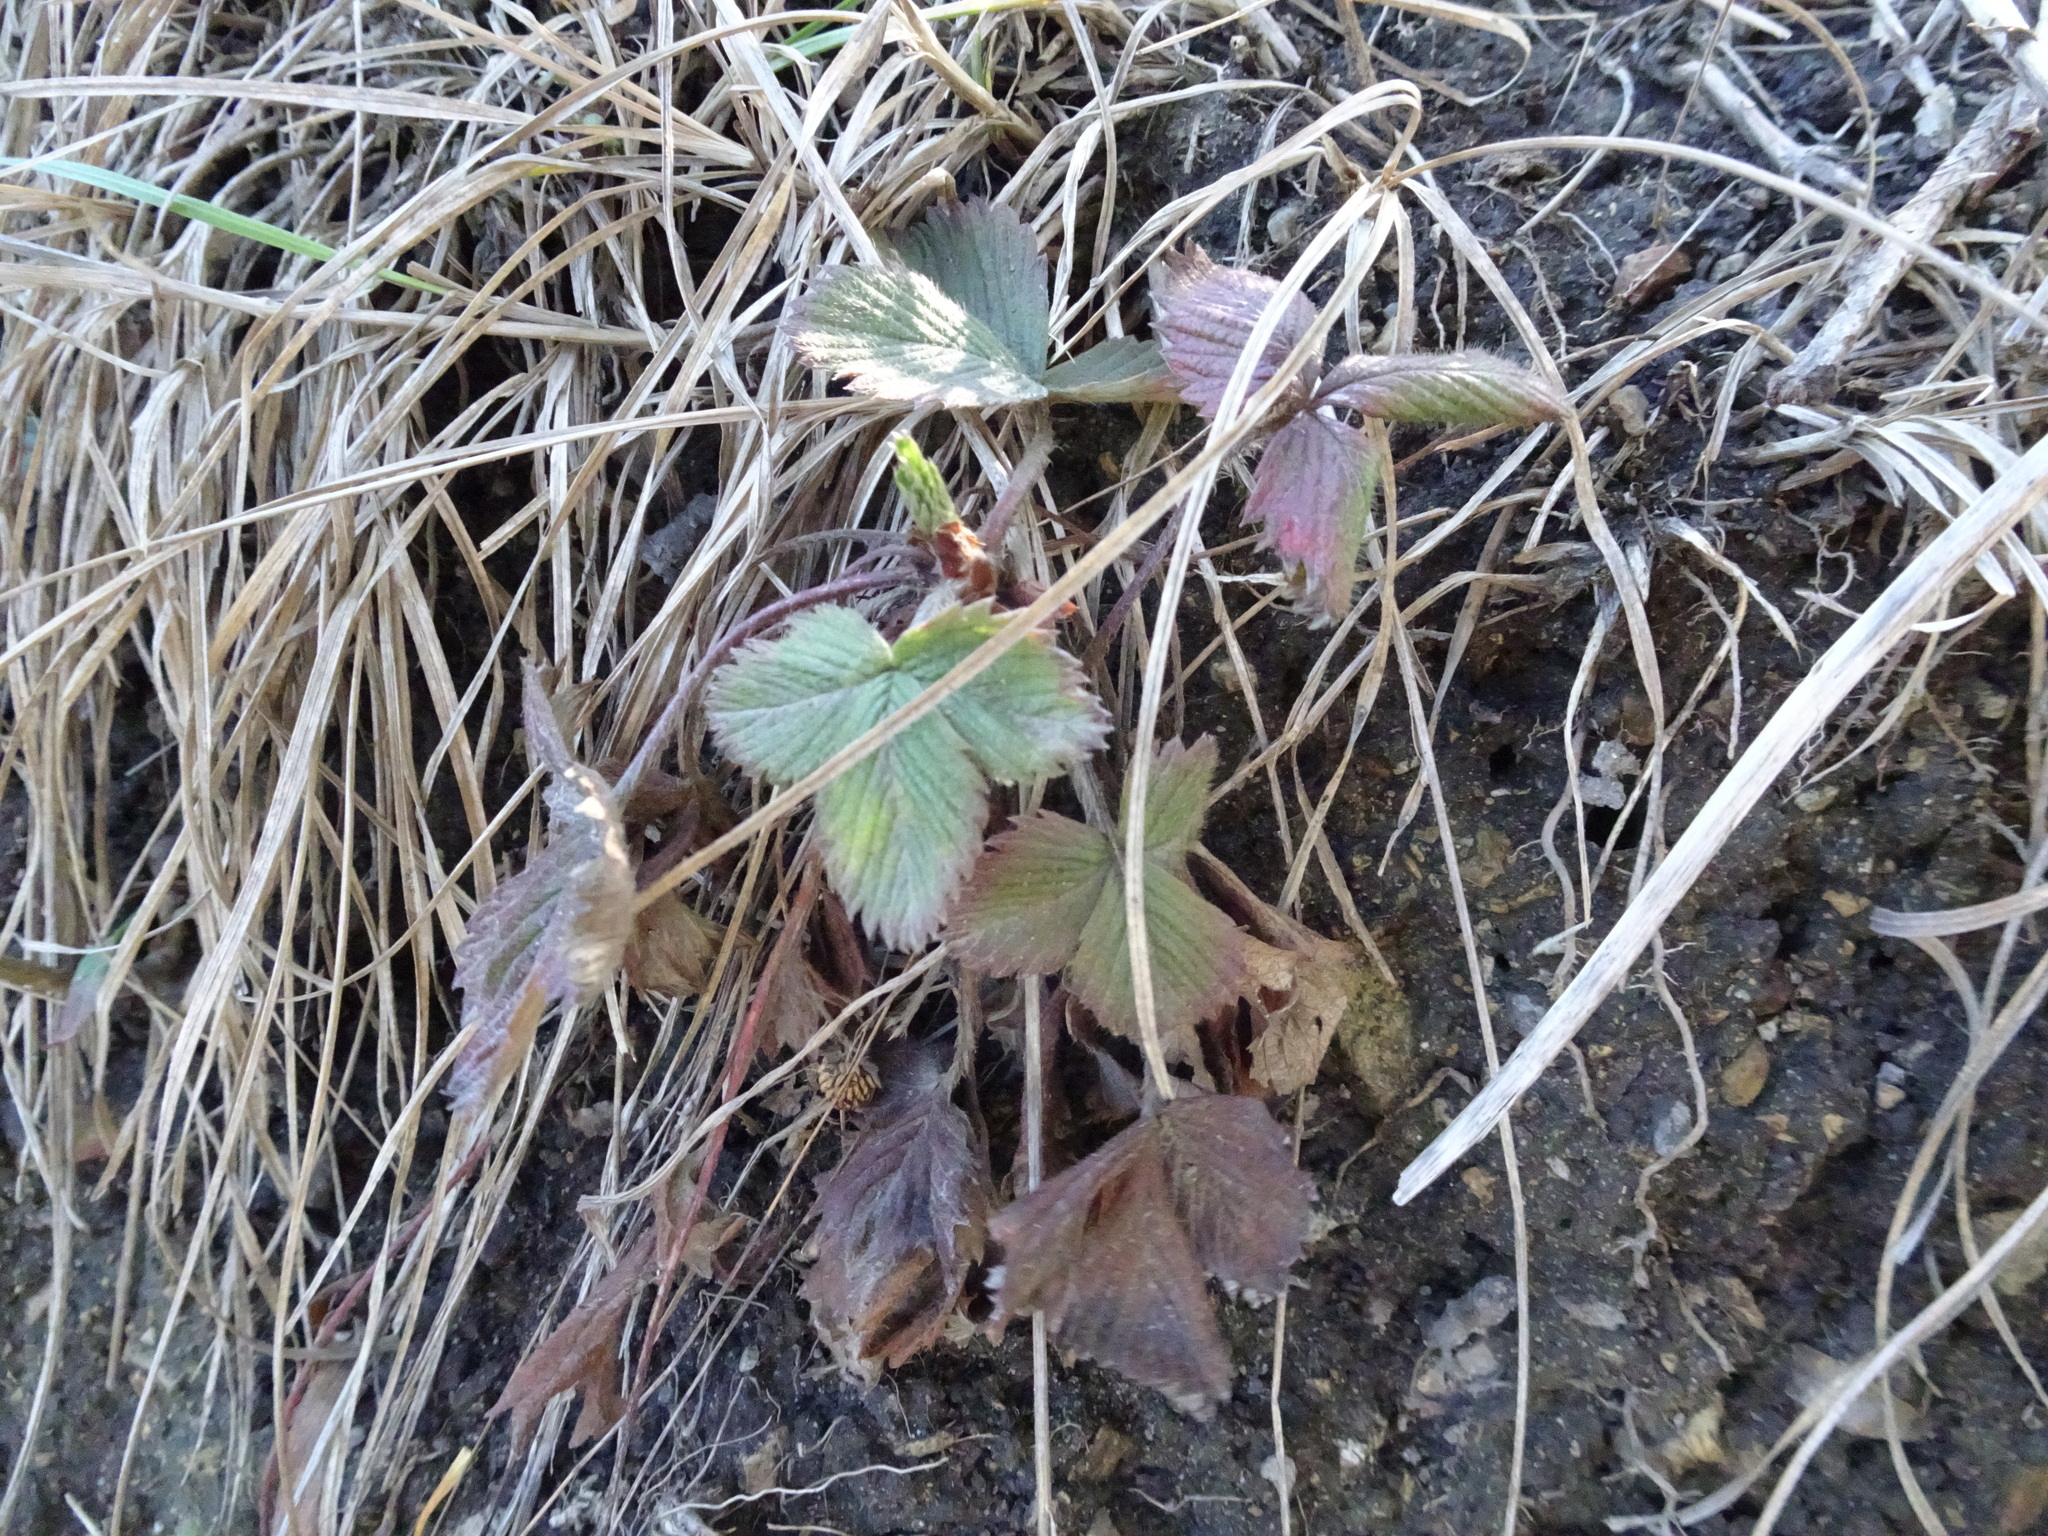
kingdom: Plantae
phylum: Tracheophyta
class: Magnoliopsida
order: Rosales
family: Rosaceae
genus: Fragaria
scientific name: Fragaria vesca
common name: Wild strawberry
